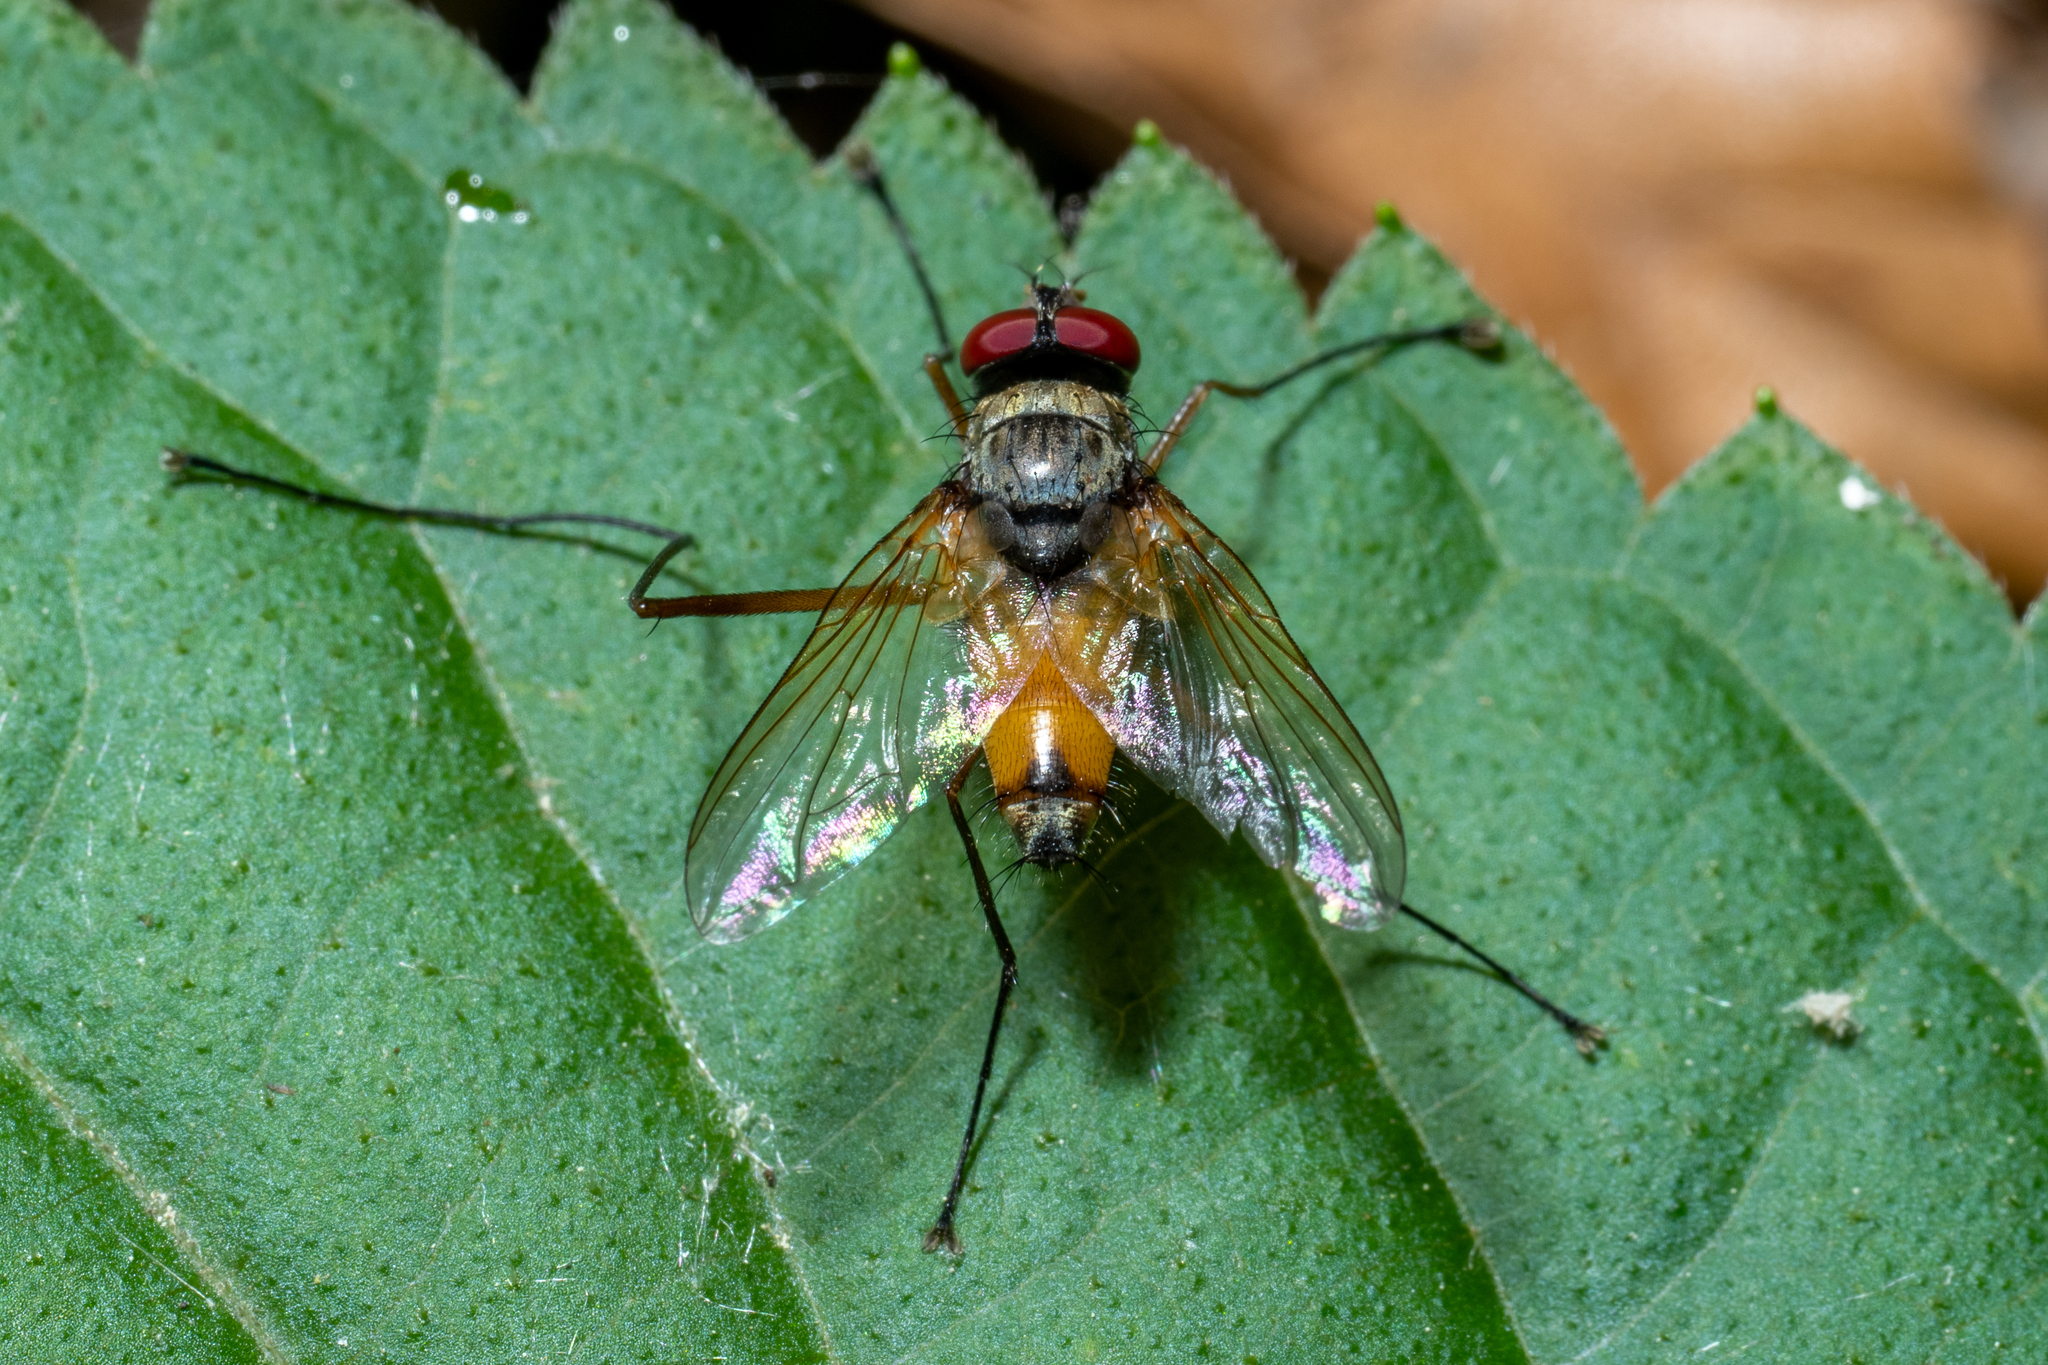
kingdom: Animalia
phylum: Arthropoda
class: Insecta
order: Diptera
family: Tachinidae
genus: Cholomyia
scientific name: Cholomyia inaequipes
